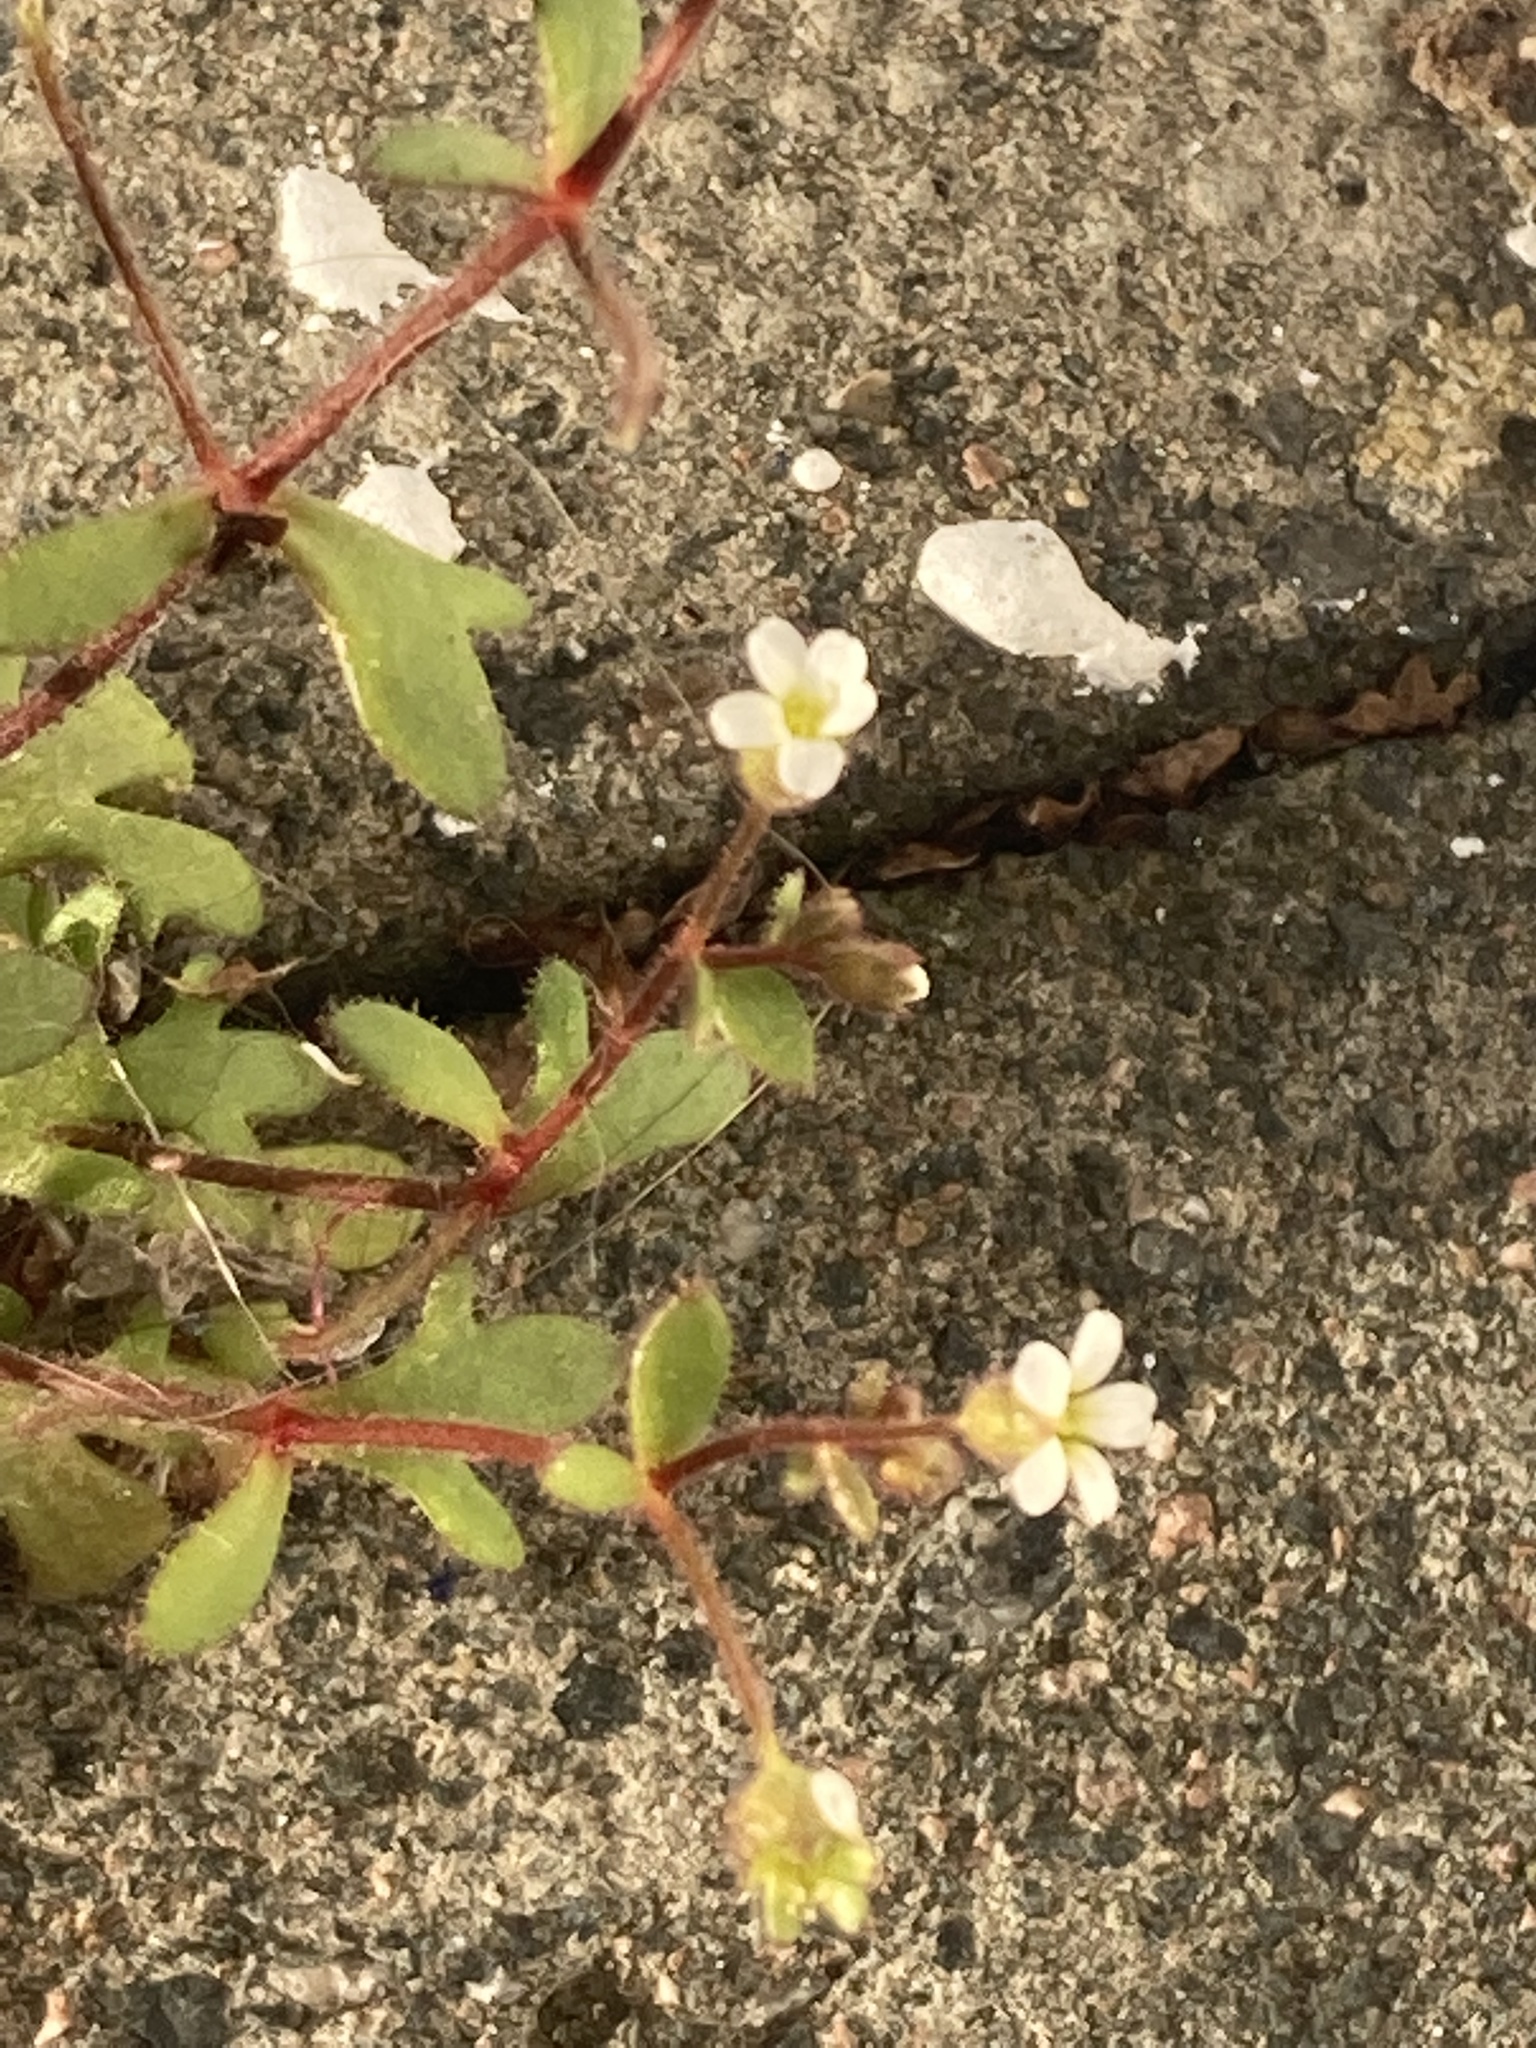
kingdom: Plantae
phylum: Tracheophyta
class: Magnoliopsida
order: Saxifragales
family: Saxifragaceae
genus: Saxifraga
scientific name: Saxifraga tridactylites
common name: Rue-leaved saxifrage
